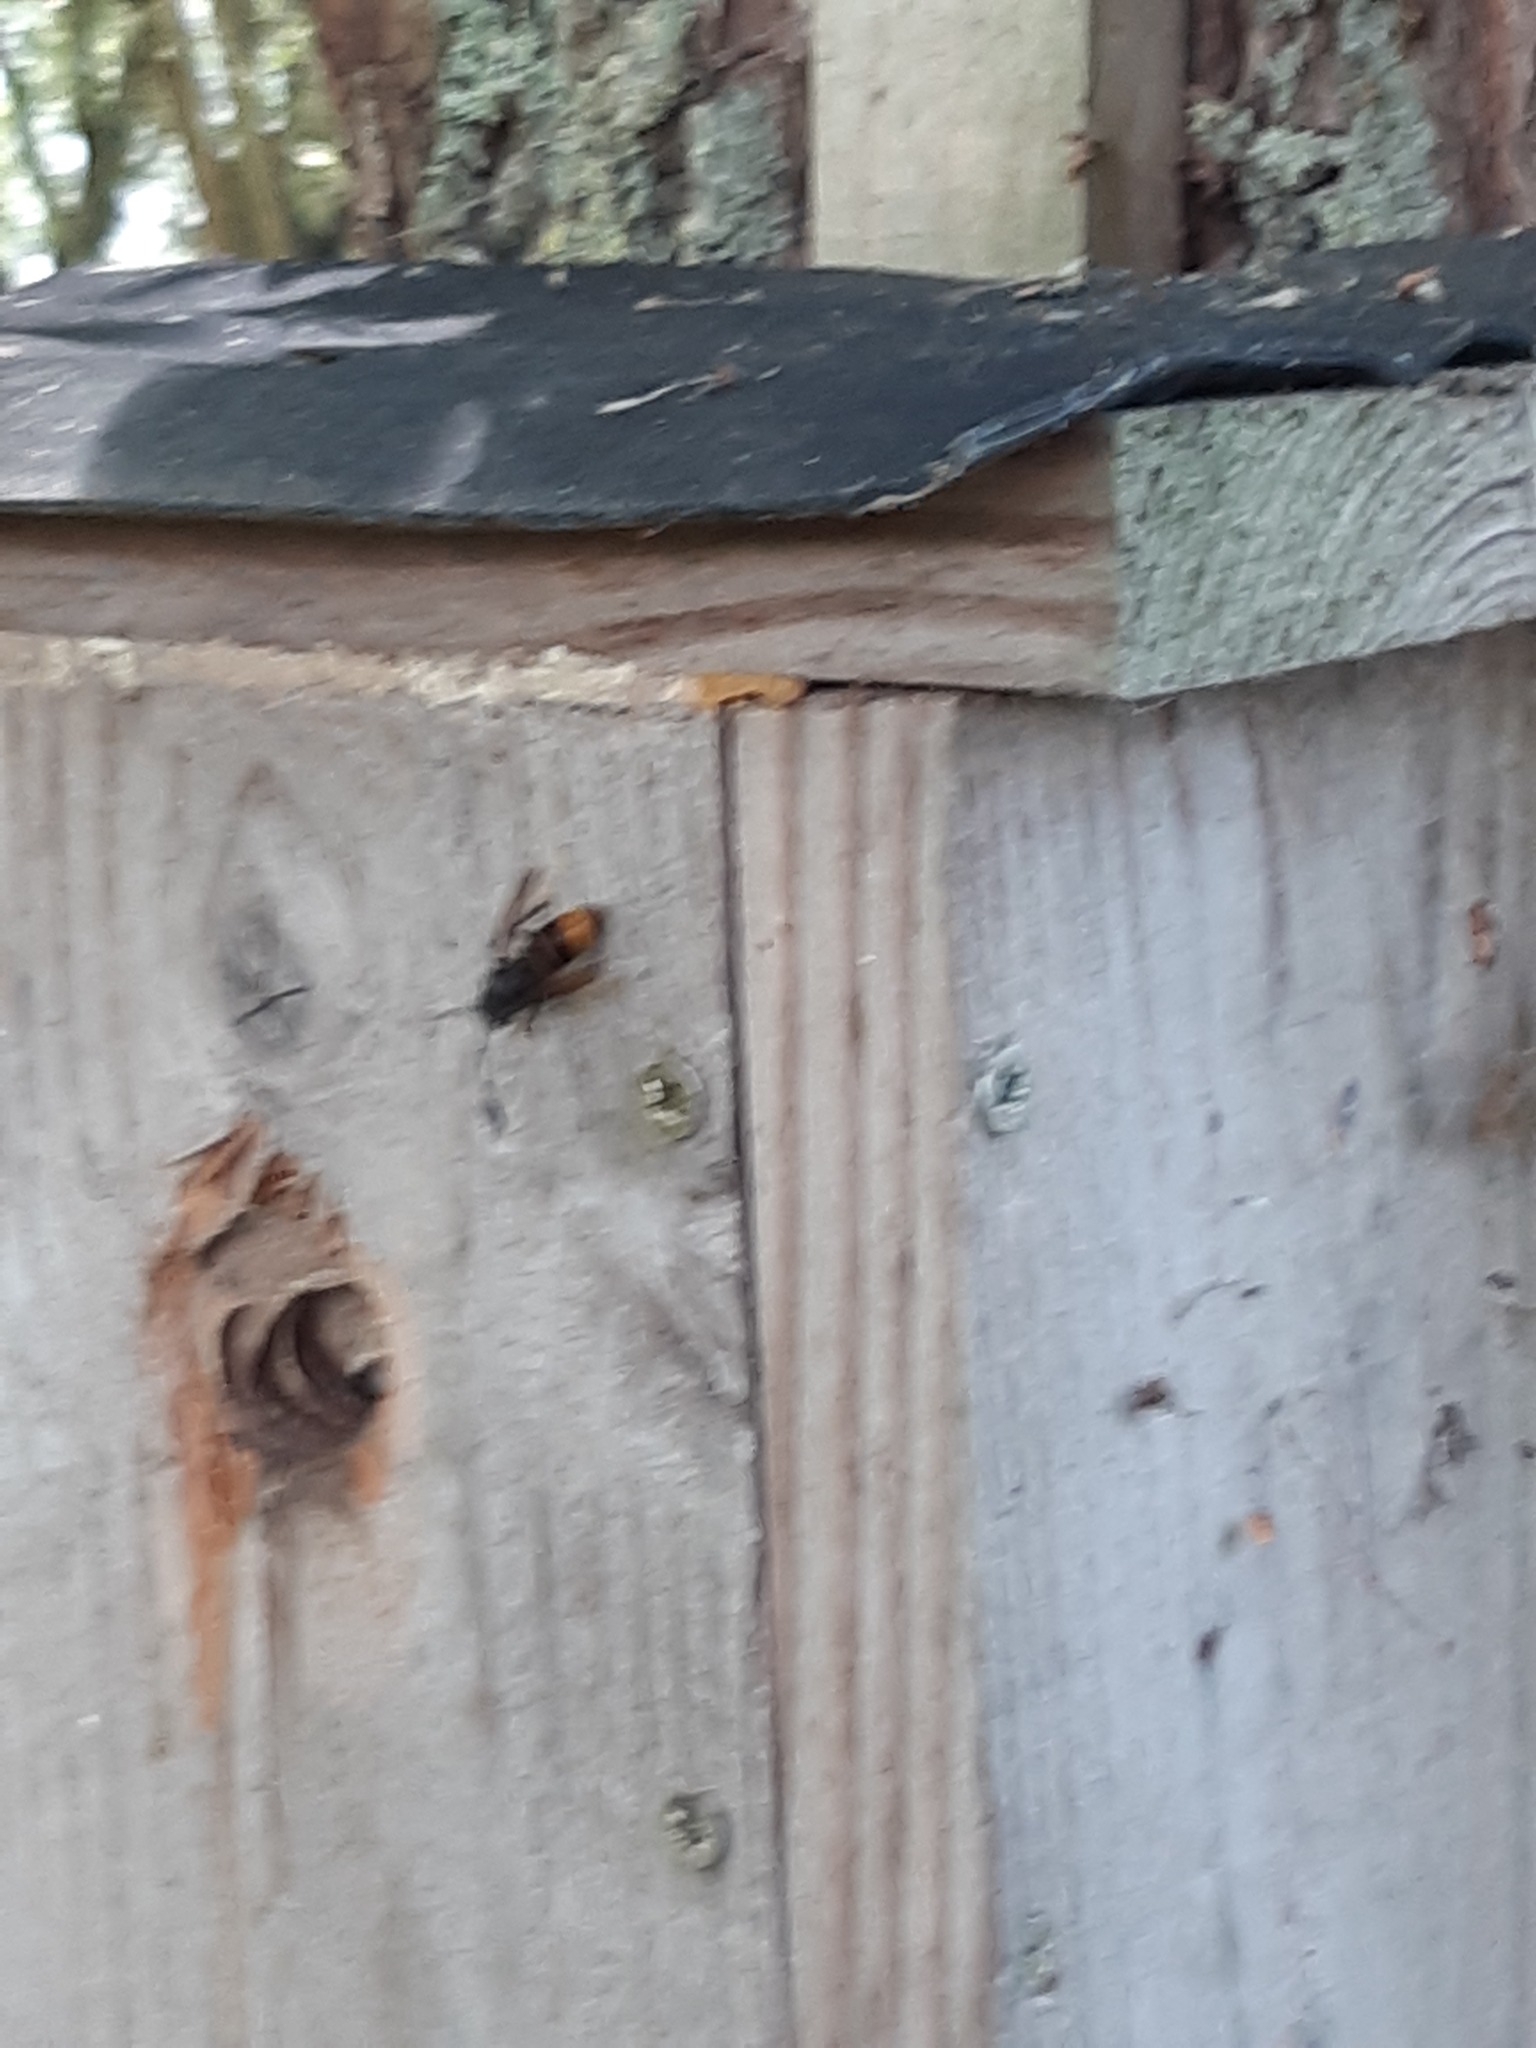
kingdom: Animalia
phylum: Arthropoda
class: Insecta
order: Hymenoptera
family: Vespidae
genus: Vespa
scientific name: Vespa velutina
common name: Asian hornet
